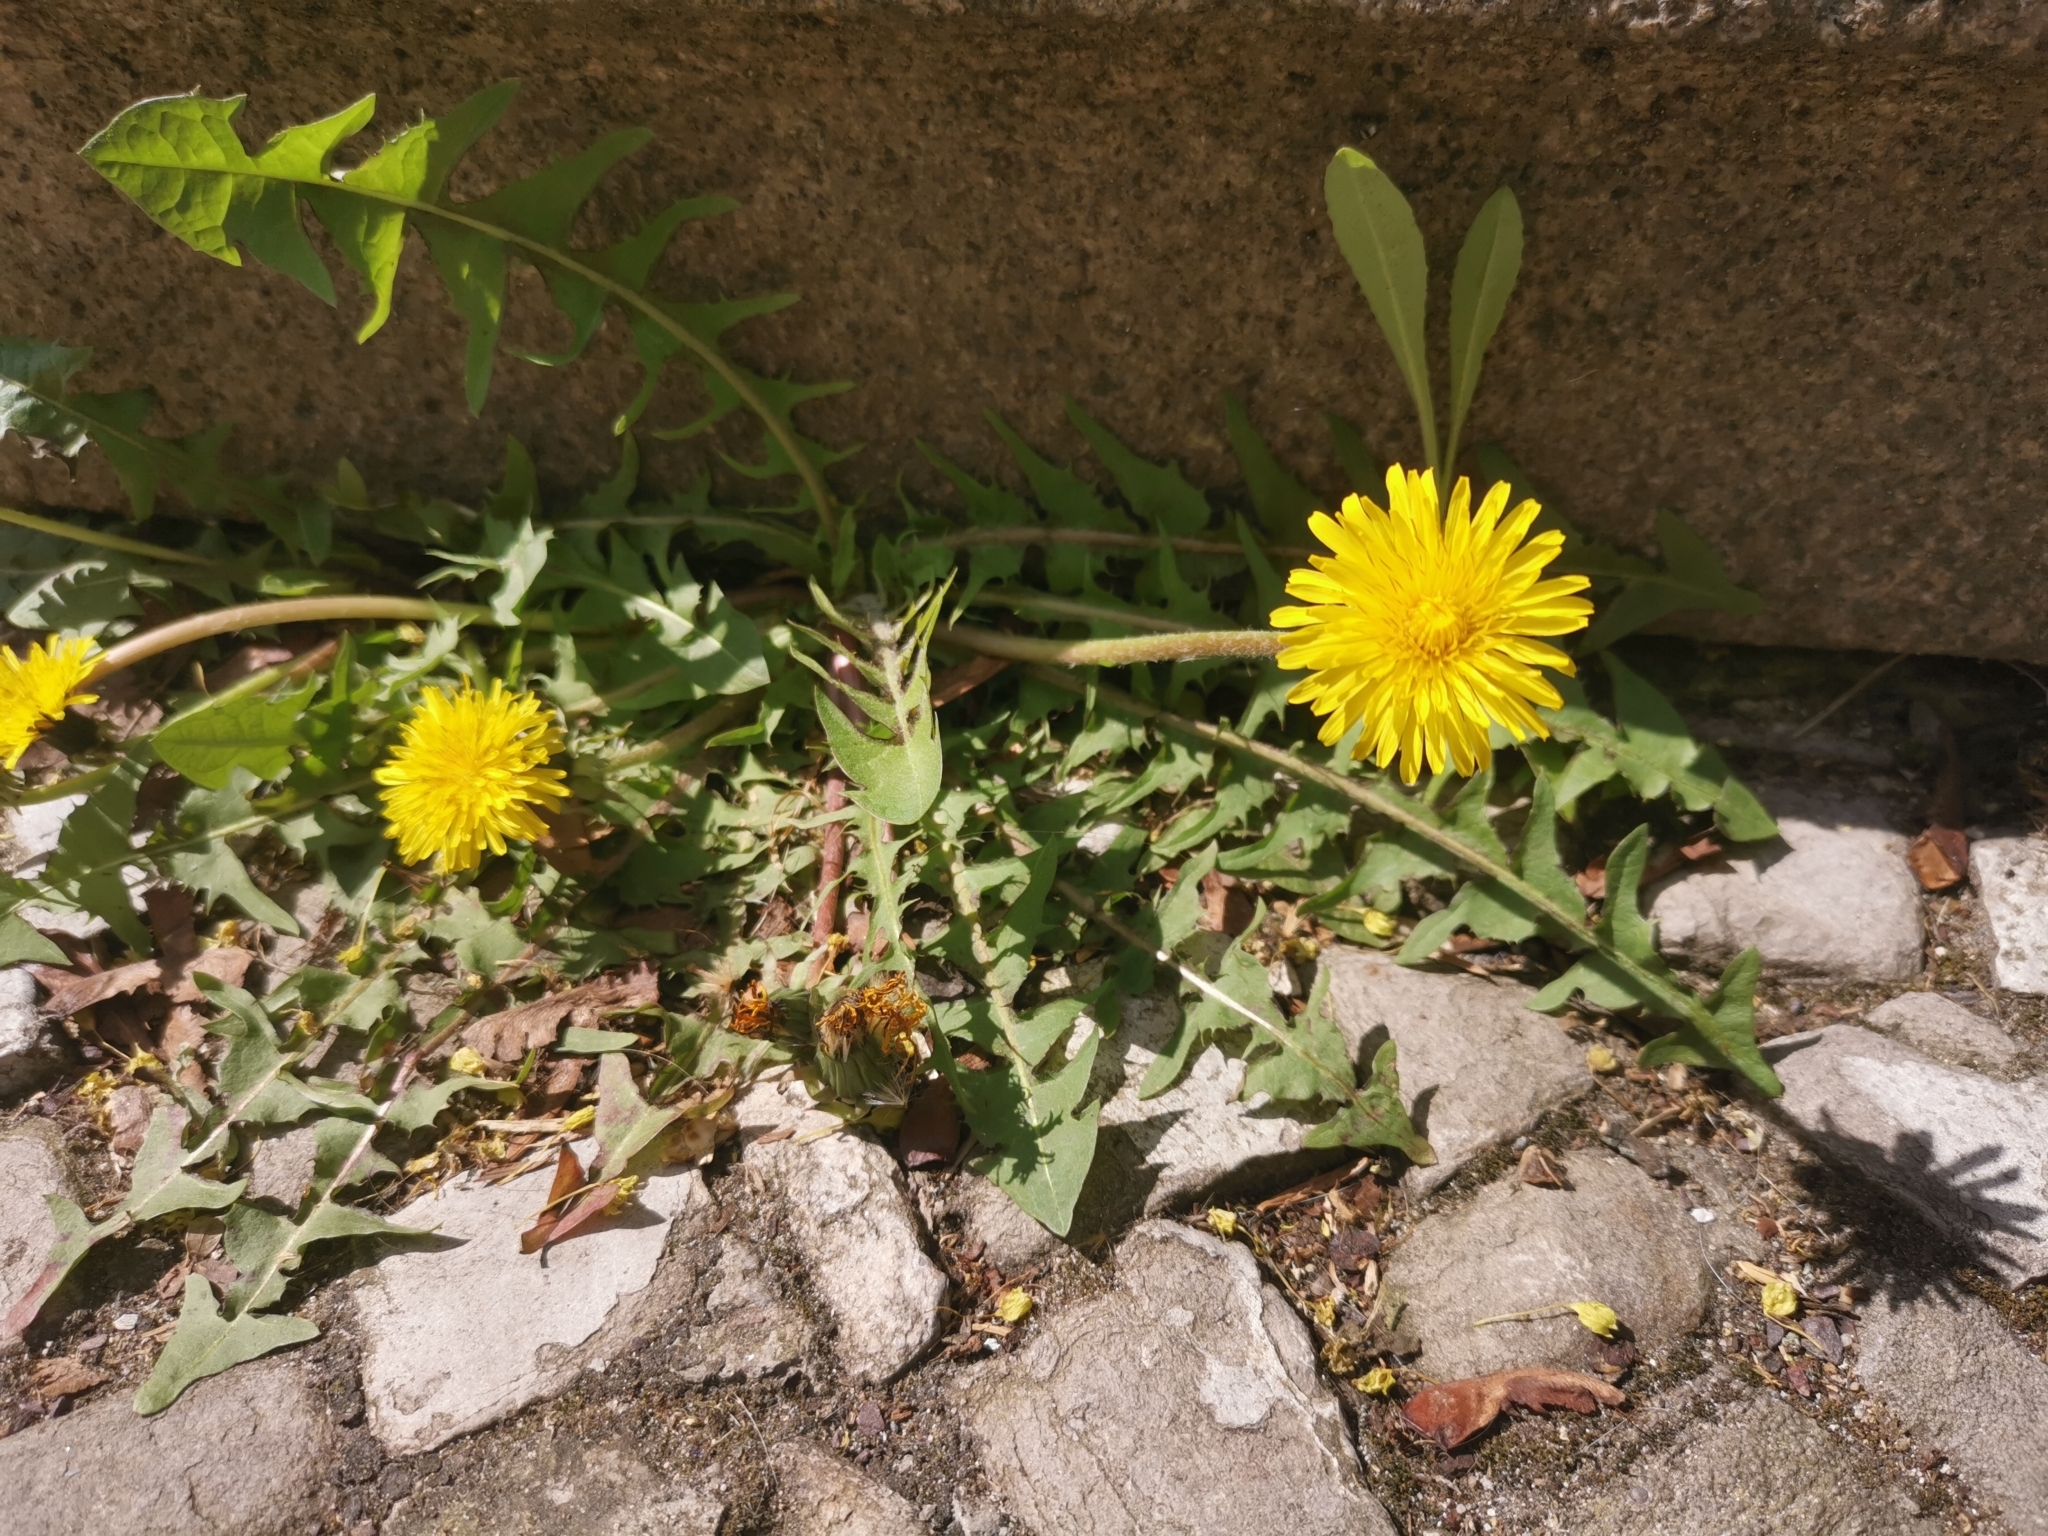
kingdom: Plantae
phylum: Tracheophyta
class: Magnoliopsida
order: Asterales
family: Asteraceae
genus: Taraxacum
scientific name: Taraxacum
